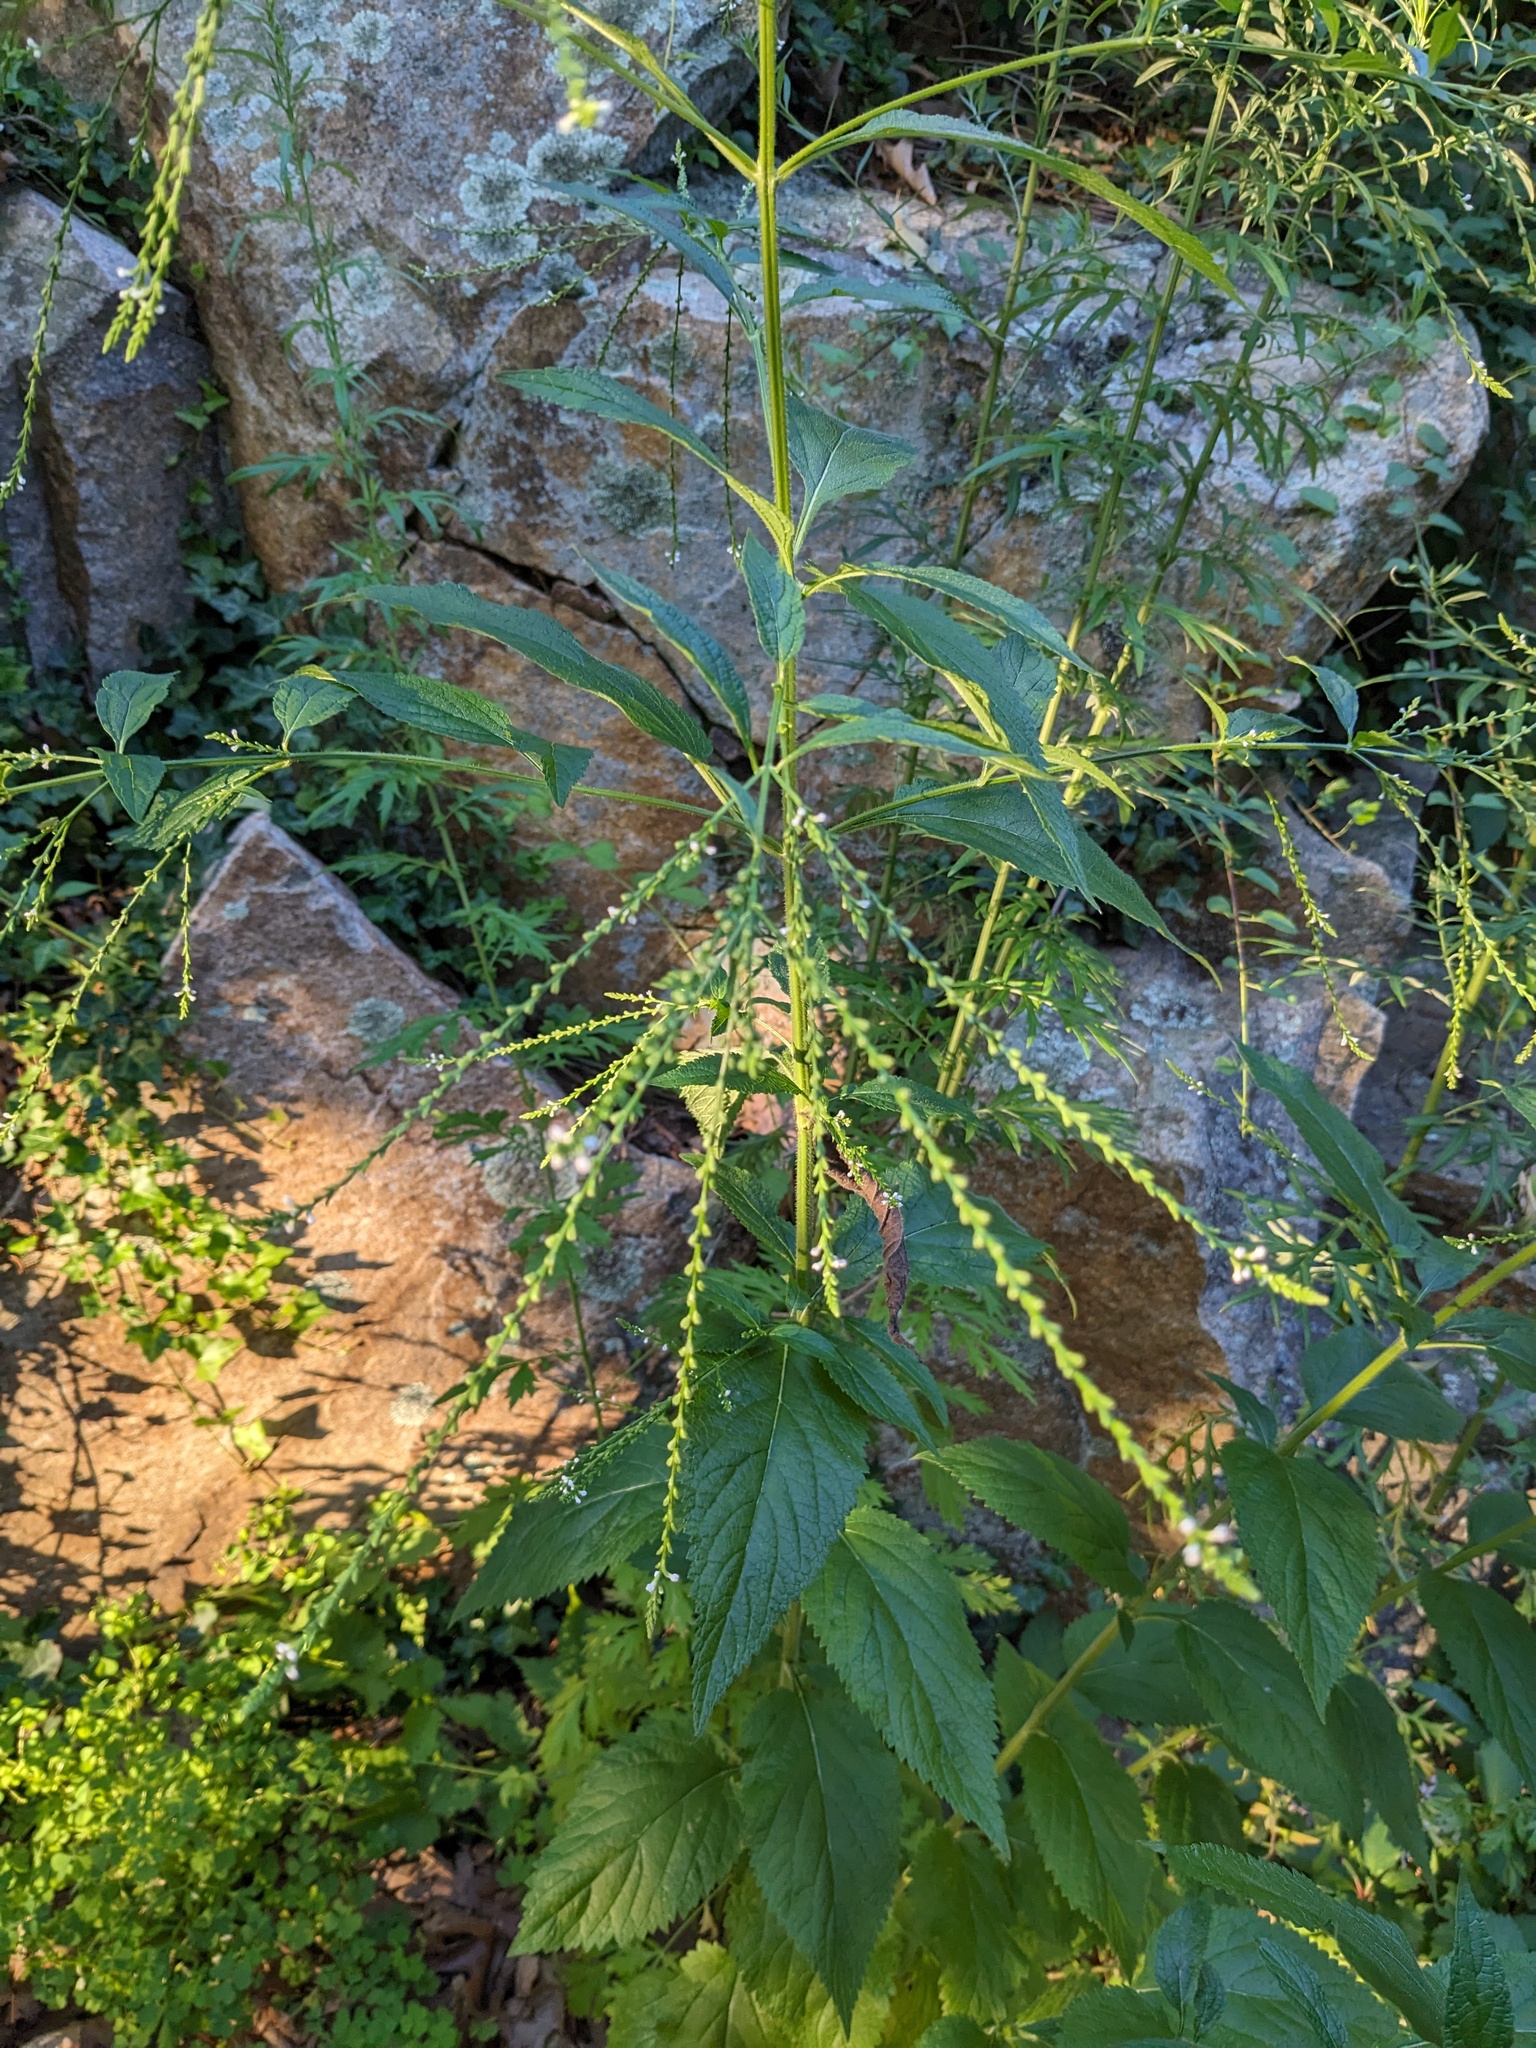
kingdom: Plantae
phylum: Tracheophyta
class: Magnoliopsida
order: Lamiales
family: Verbenaceae
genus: Verbena
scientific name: Verbena urticifolia
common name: Nettle-leaved vervain
